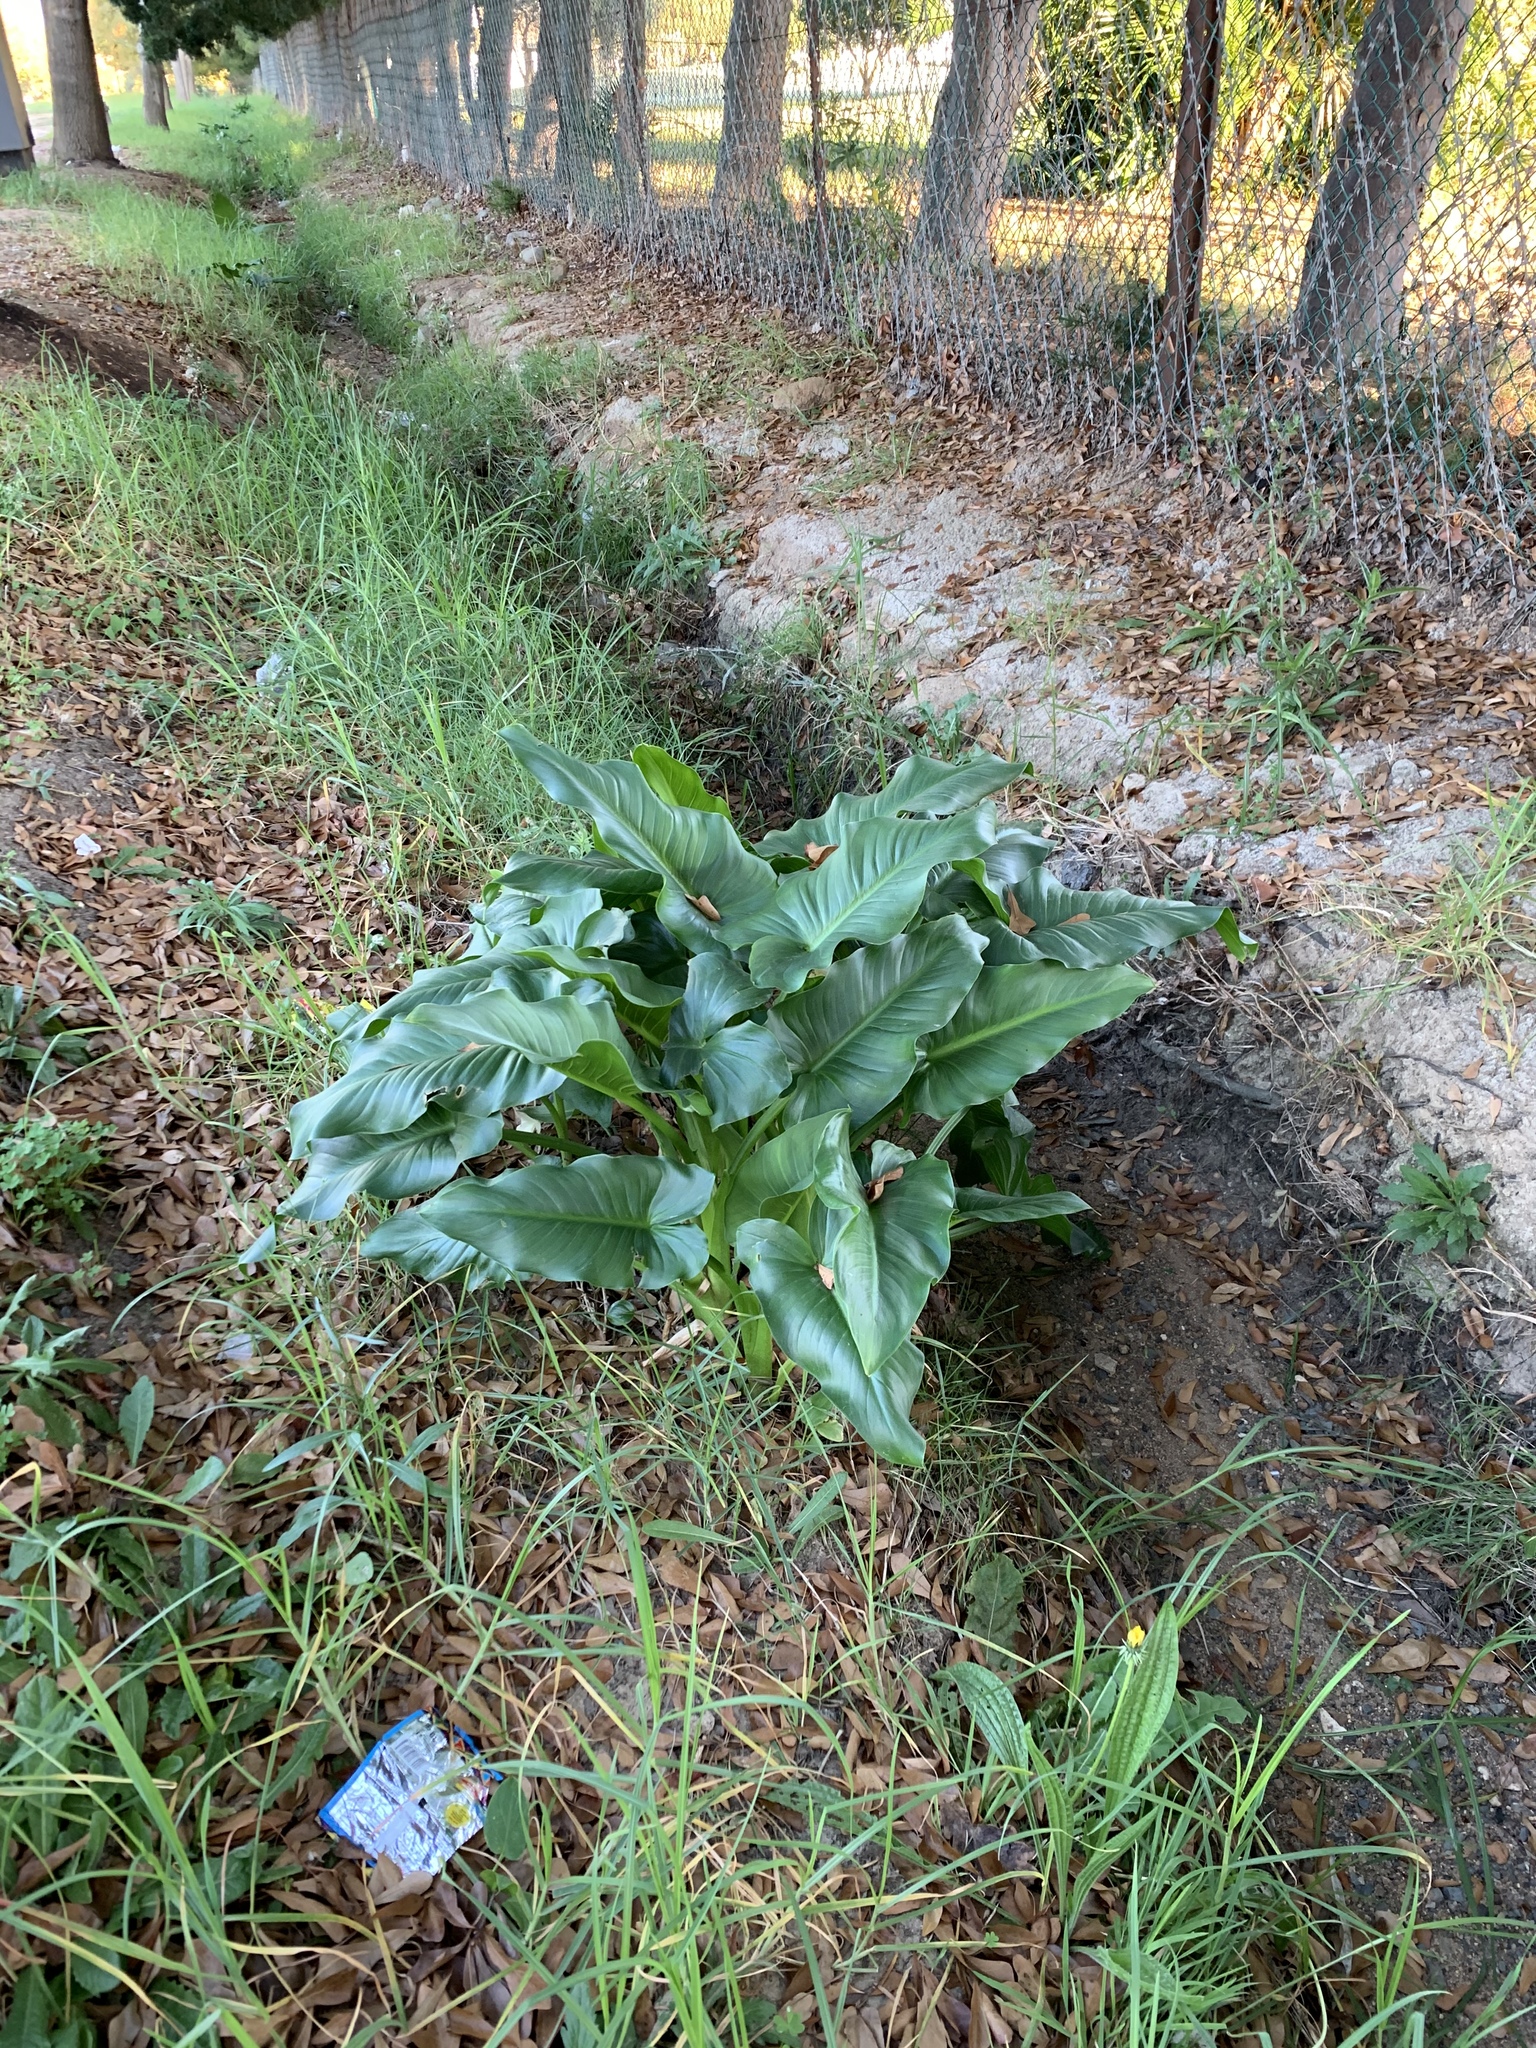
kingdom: Plantae
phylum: Tracheophyta
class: Liliopsida
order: Alismatales
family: Araceae
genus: Zantedeschia
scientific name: Zantedeschia aethiopica
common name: Altar-lily
